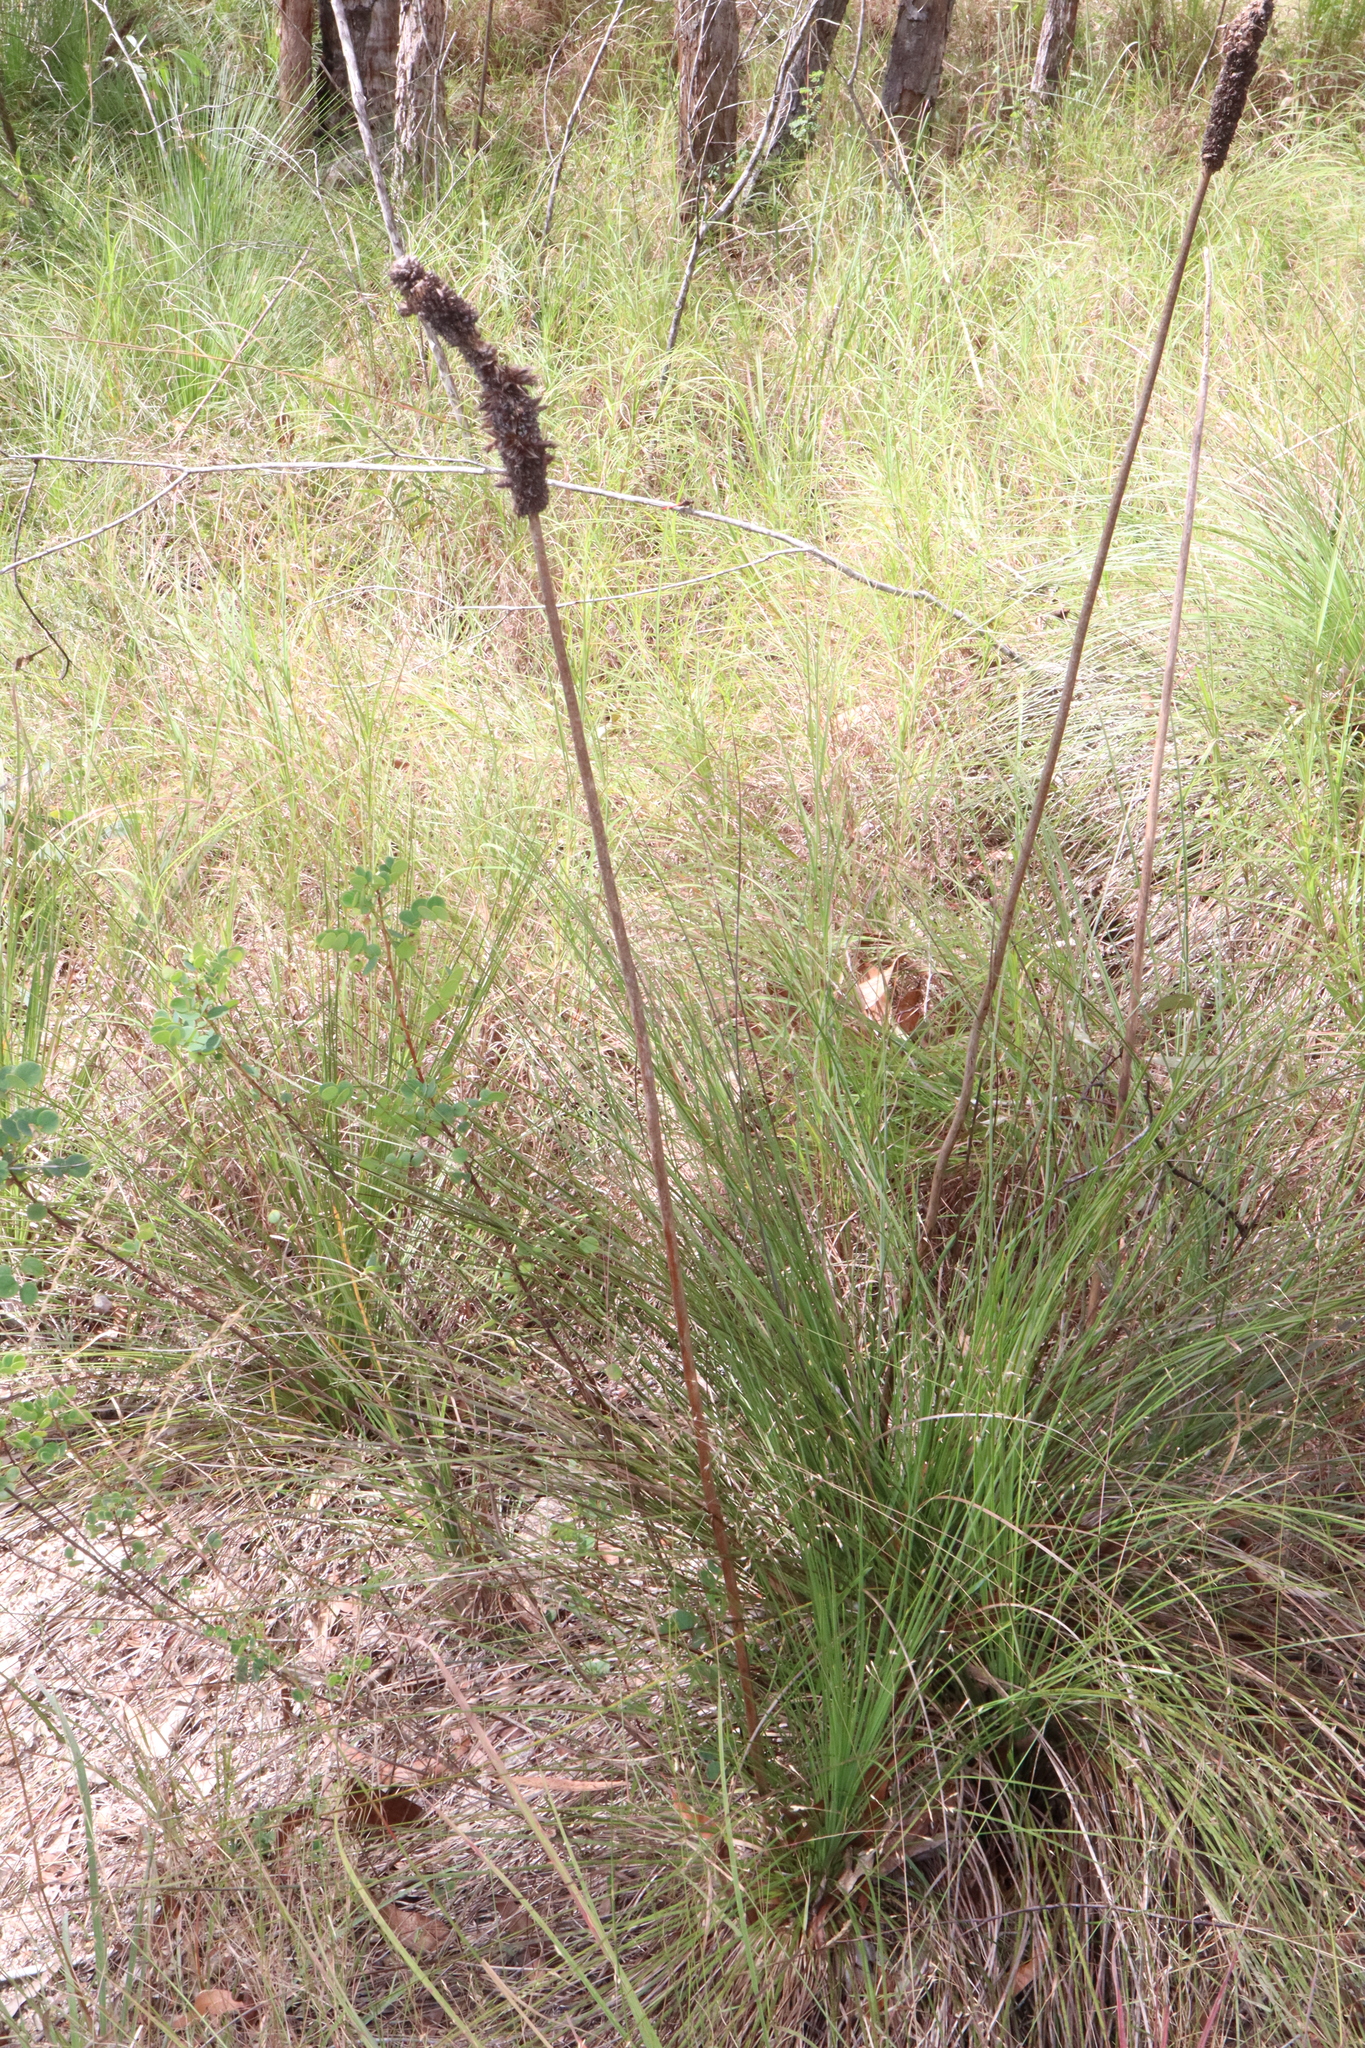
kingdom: Plantae
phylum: Tracheophyta
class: Liliopsida
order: Asparagales
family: Asphodelaceae
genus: Xanthorrhoea
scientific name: Xanthorrhoea johnsonii
